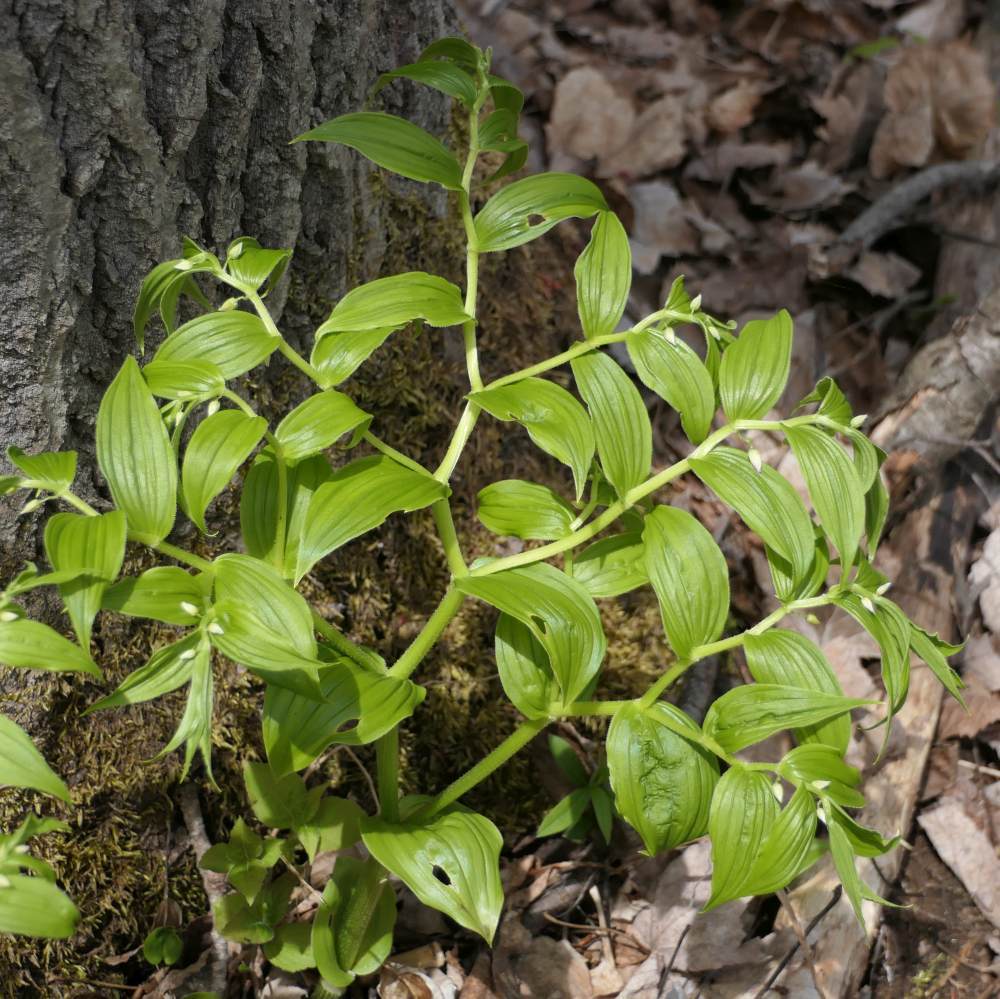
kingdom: Plantae
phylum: Tracheophyta
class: Liliopsida
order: Liliales
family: Liliaceae
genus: Streptopus
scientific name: Streptopus lanceolatus
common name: Rose mandarin
